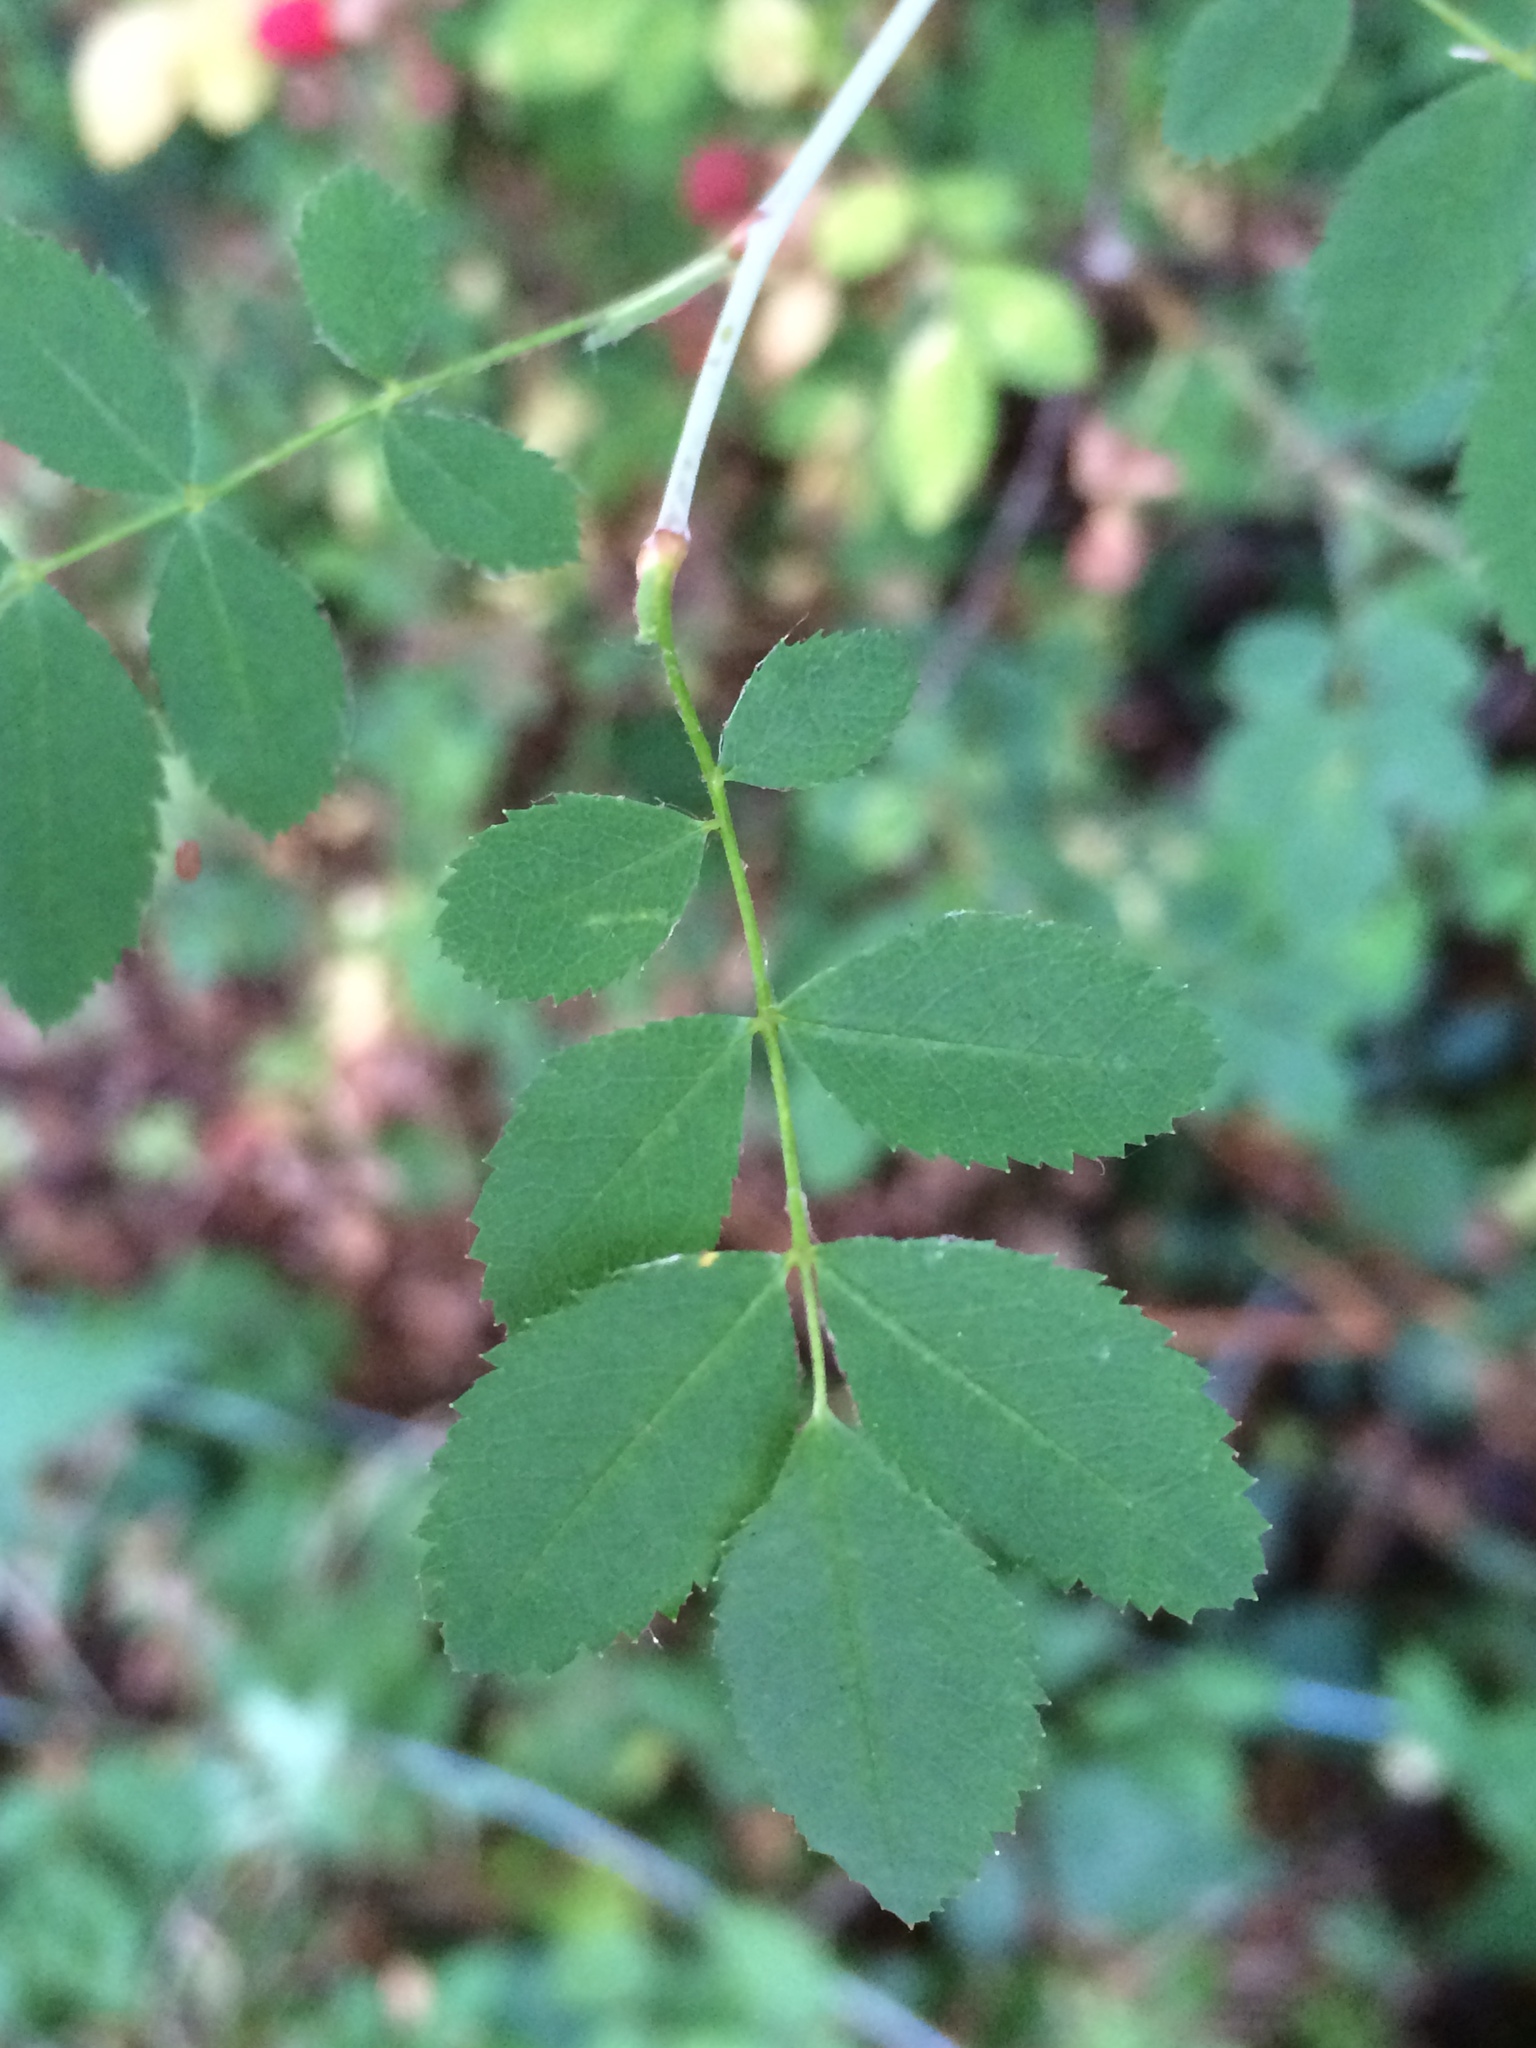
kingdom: Plantae
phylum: Tracheophyta
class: Magnoliopsida
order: Rosales
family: Rosaceae
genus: Rosa
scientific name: Rosa gymnocarpa
